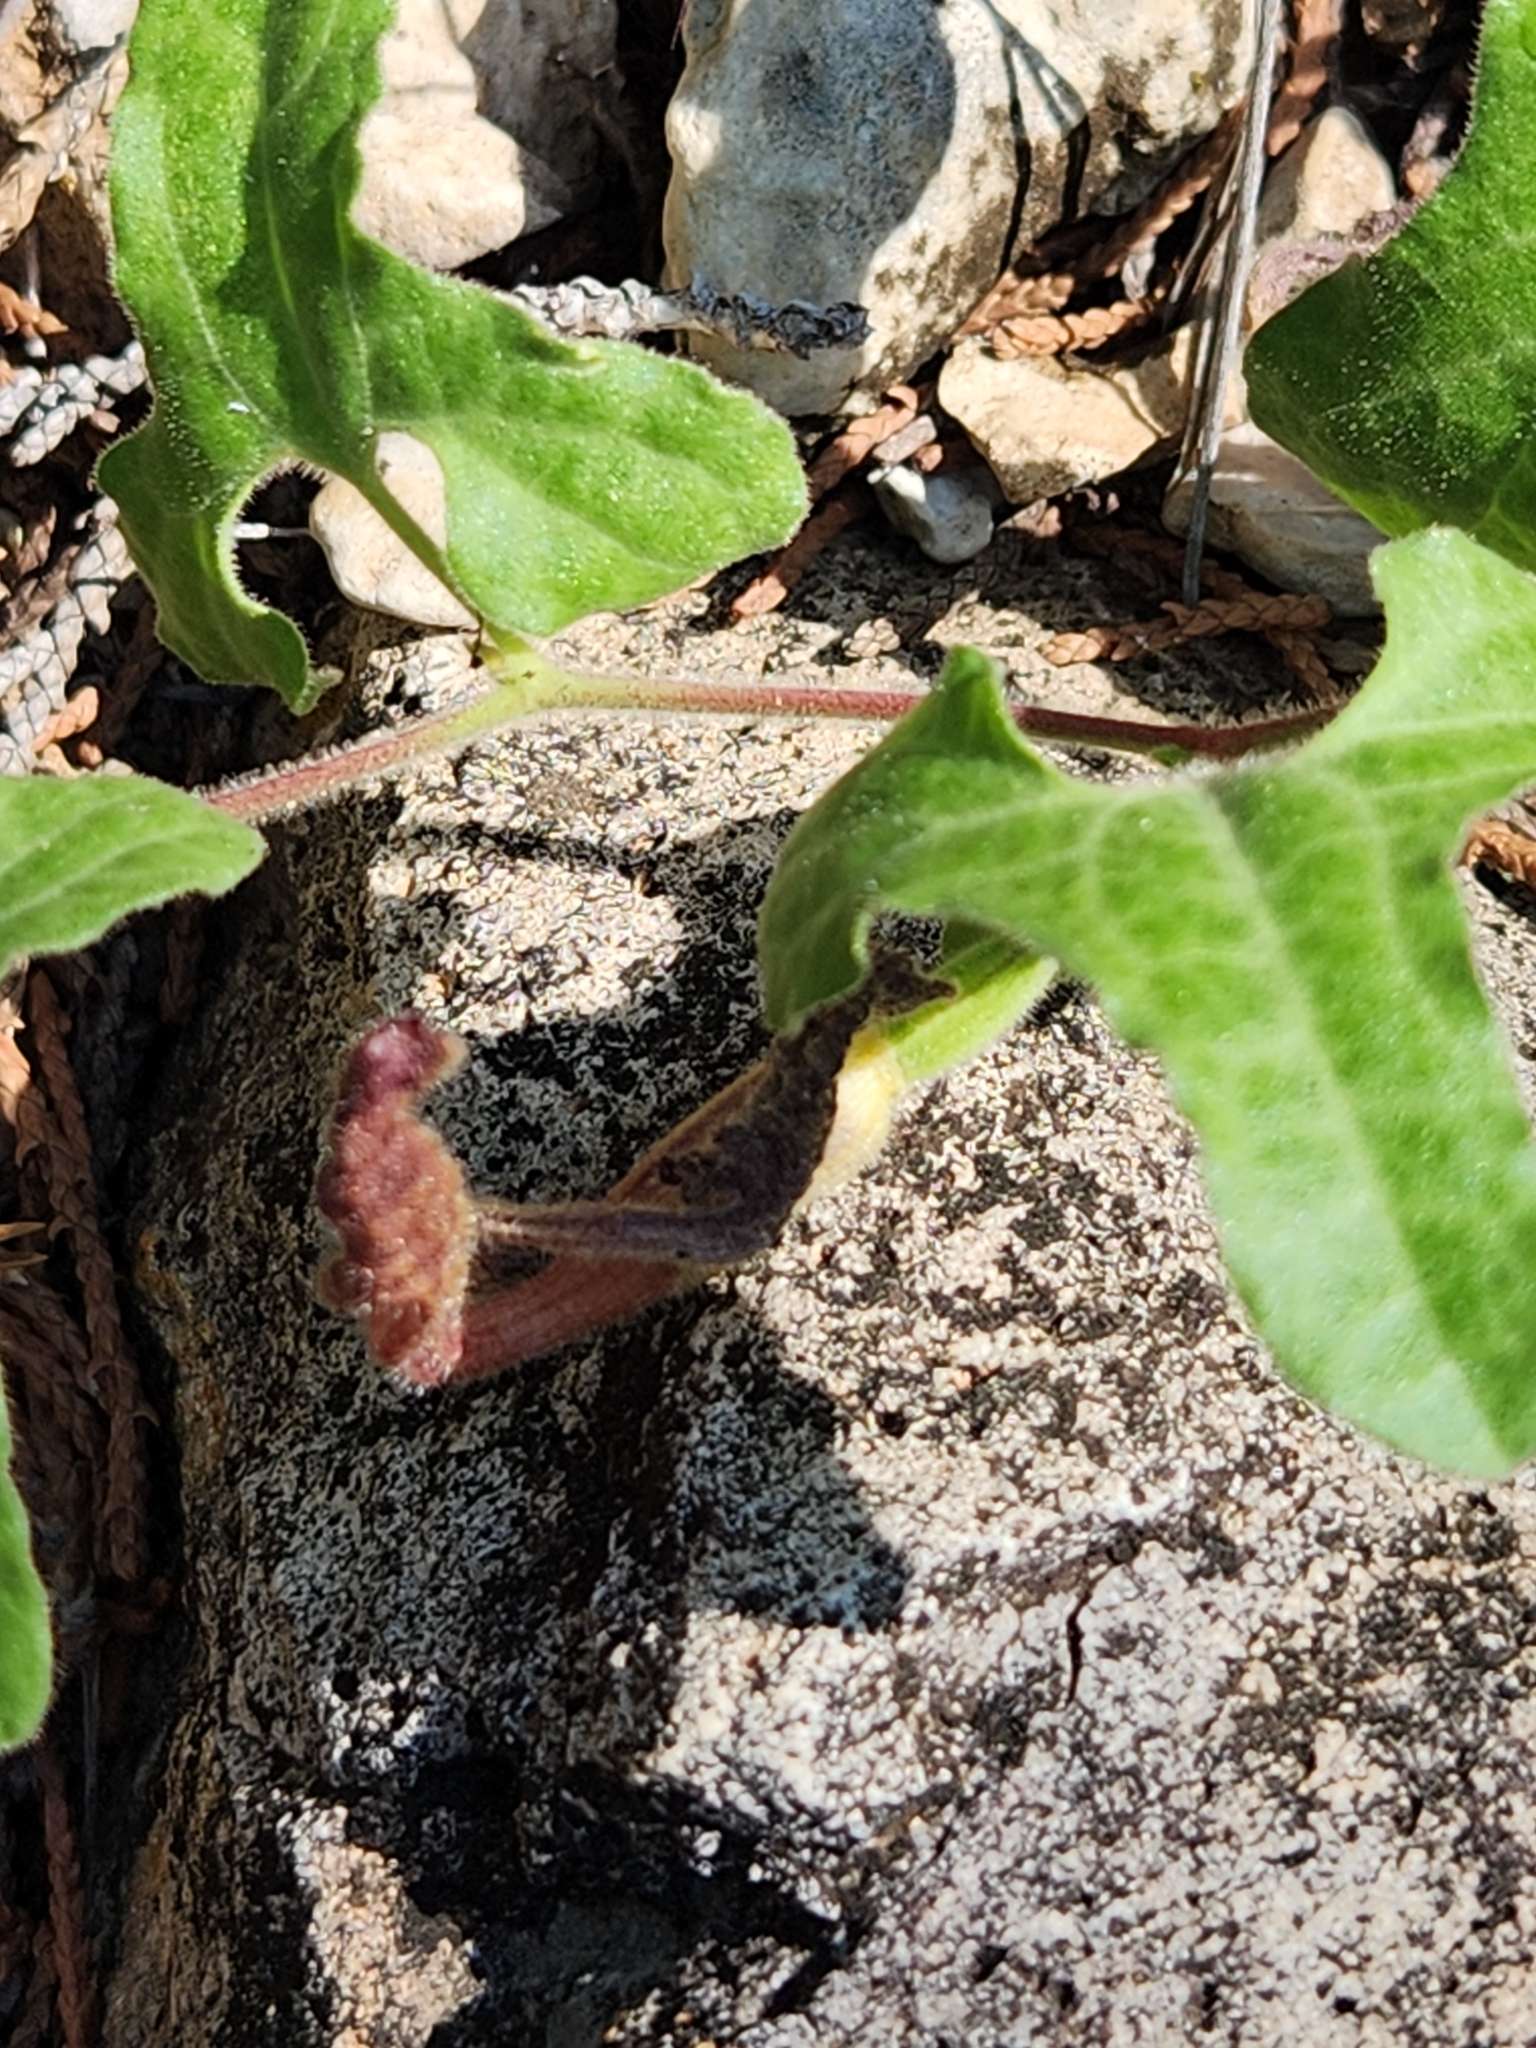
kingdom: Plantae
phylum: Tracheophyta
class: Magnoliopsida
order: Piperales
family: Aristolochiaceae
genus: Aristolochia
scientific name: Aristolochia coryi
